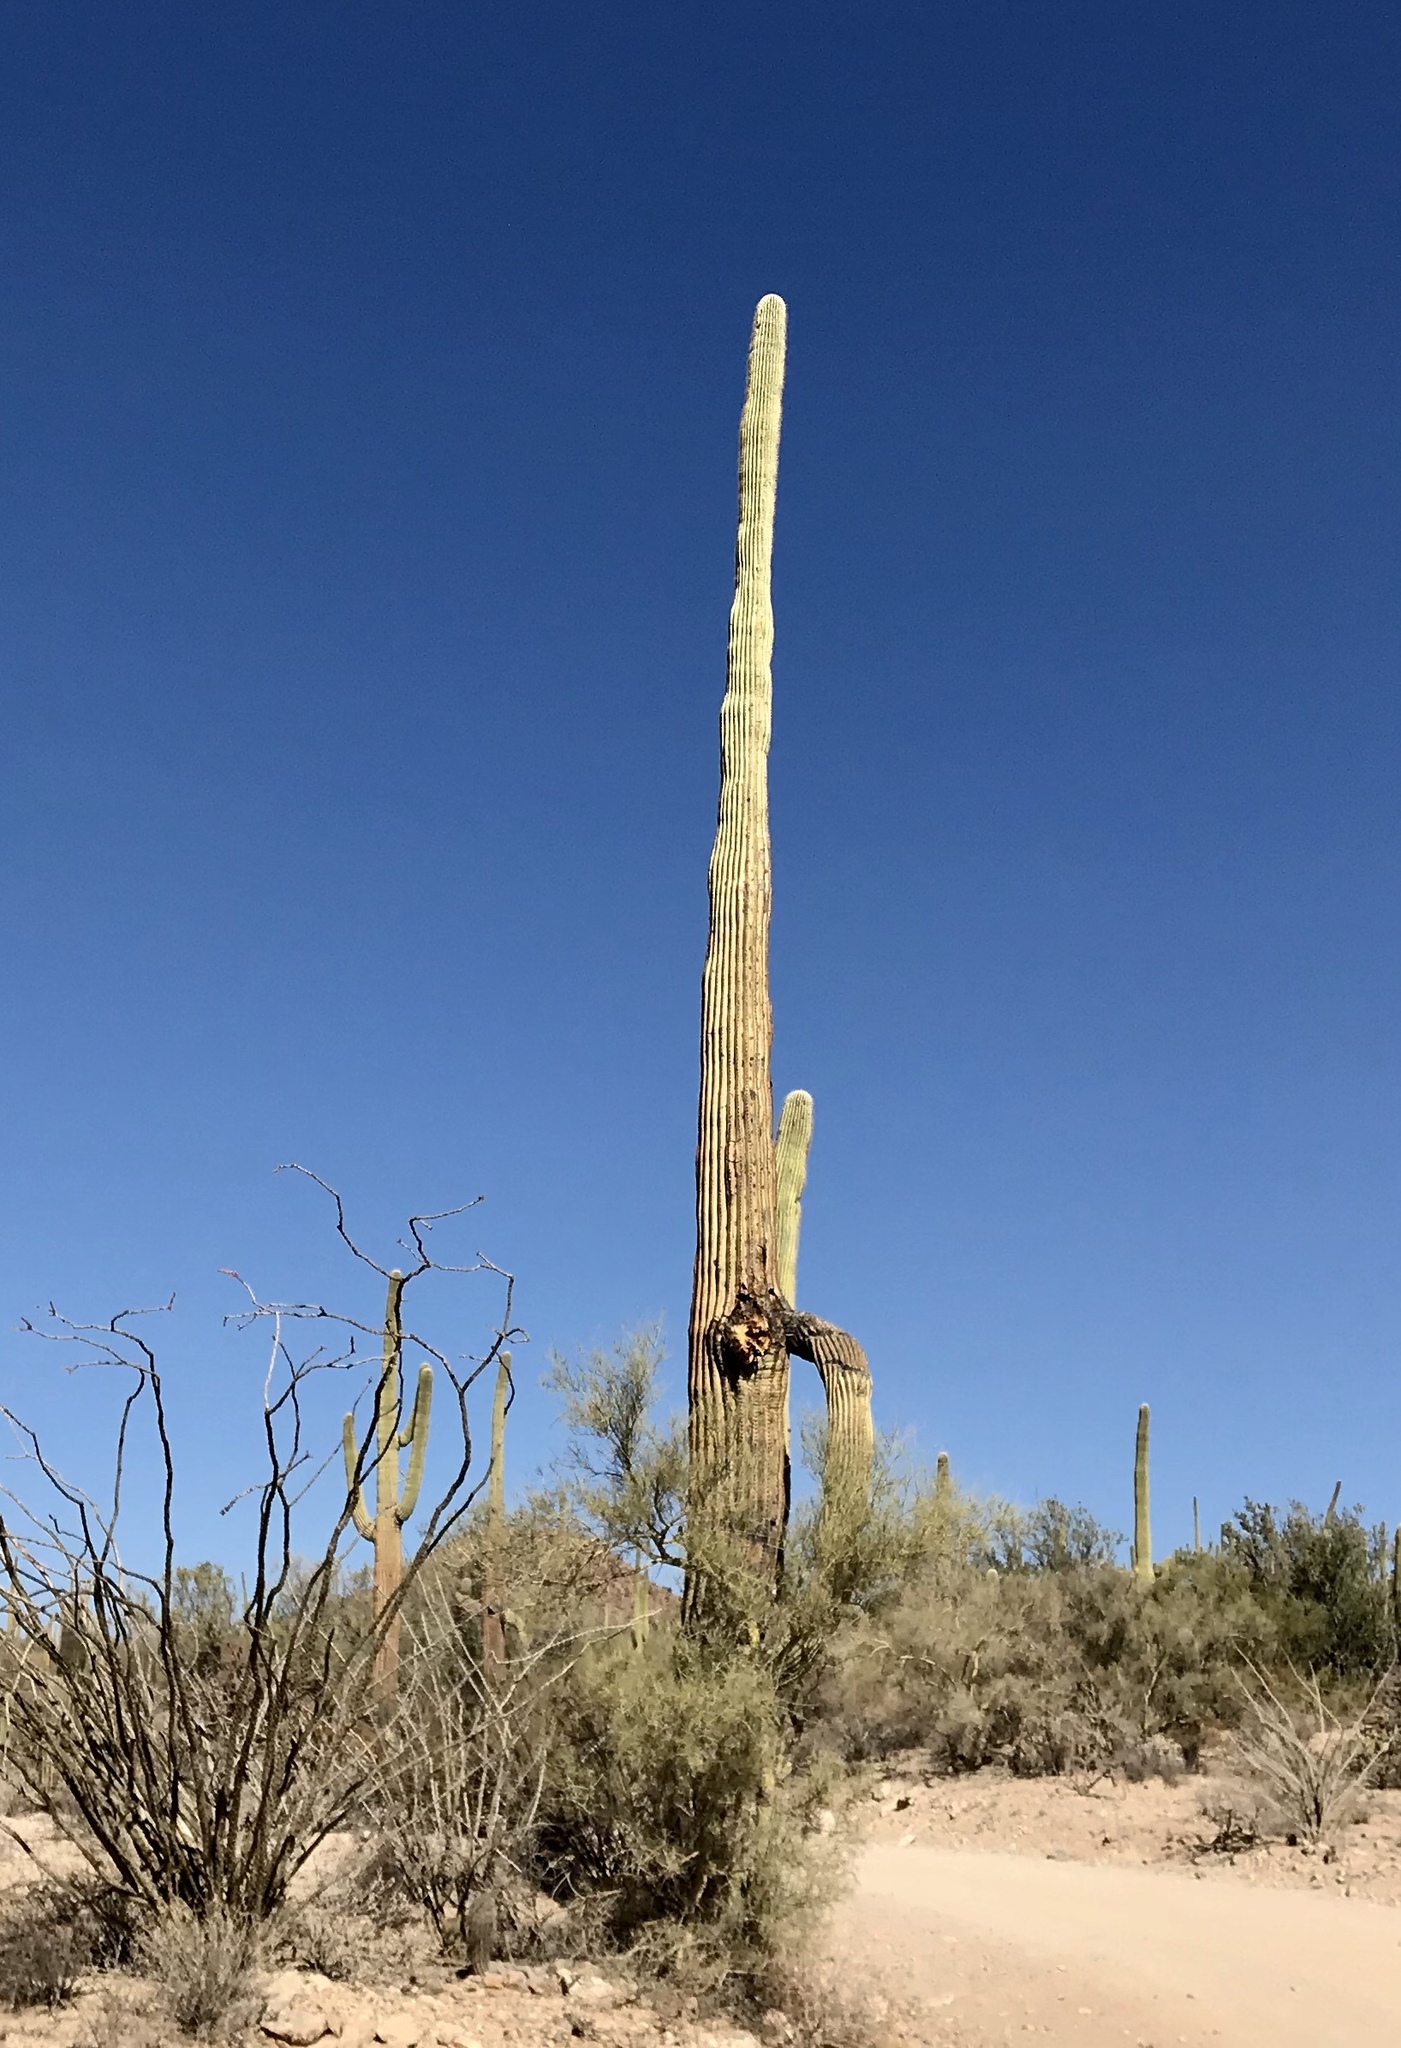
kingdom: Plantae
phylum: Tracheophyta
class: Magnoliopsida
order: Caryophyllales
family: Cactaceae
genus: Carnegiea
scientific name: Carnegiea gigantea
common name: Saguaro
